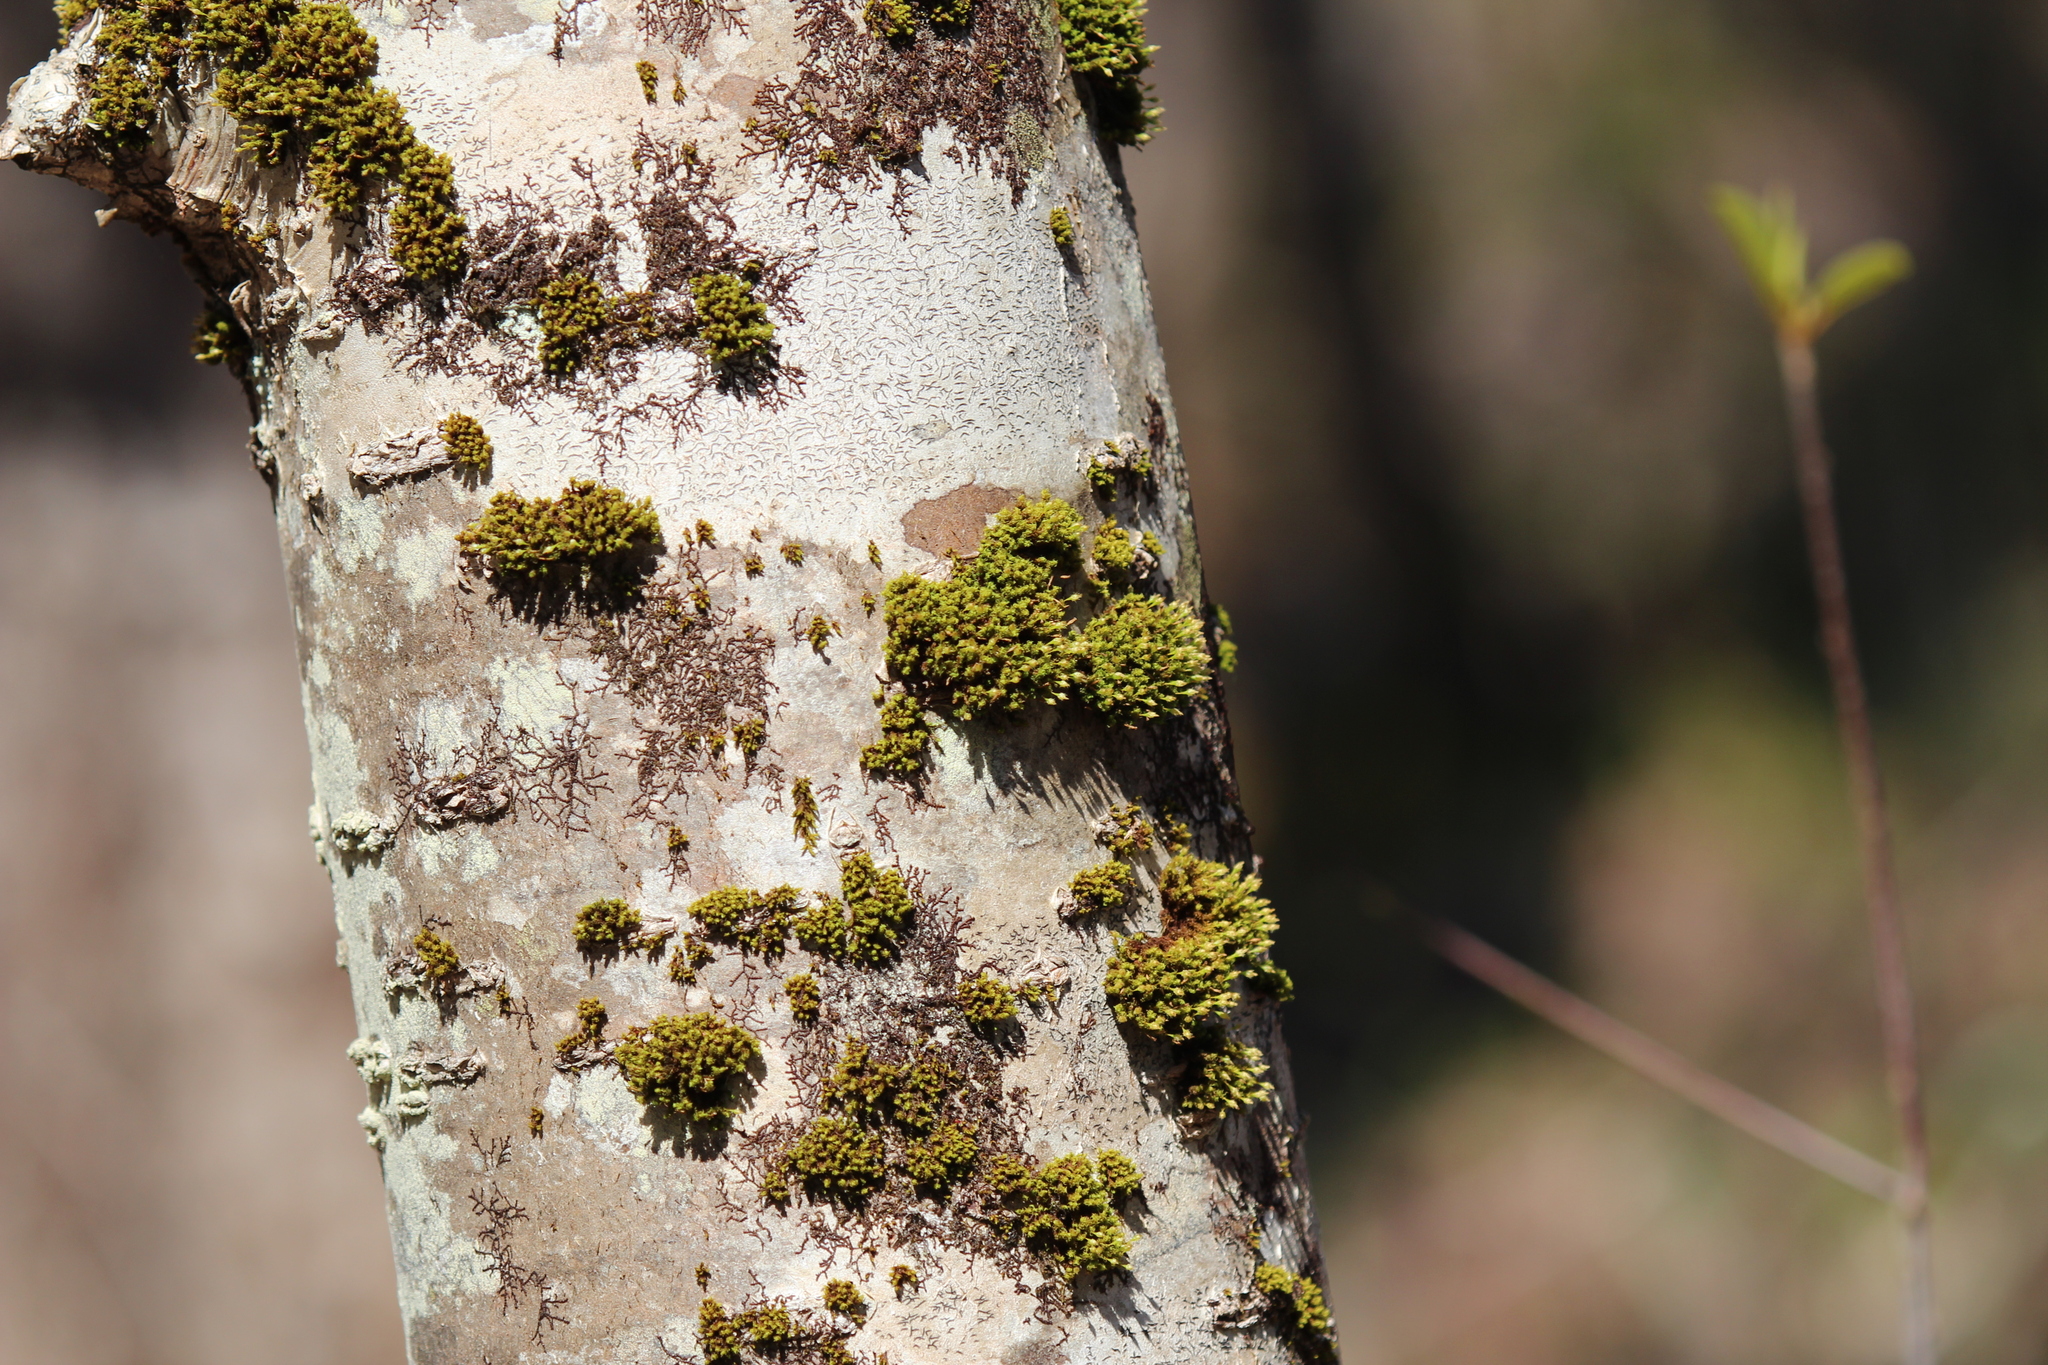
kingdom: Plantae
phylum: Bryophyta
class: Bryopsida
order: Orthotrichales
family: Orthotrichaceae
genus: Ulota
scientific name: Ulota crispa
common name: Crisped pincushion moss
